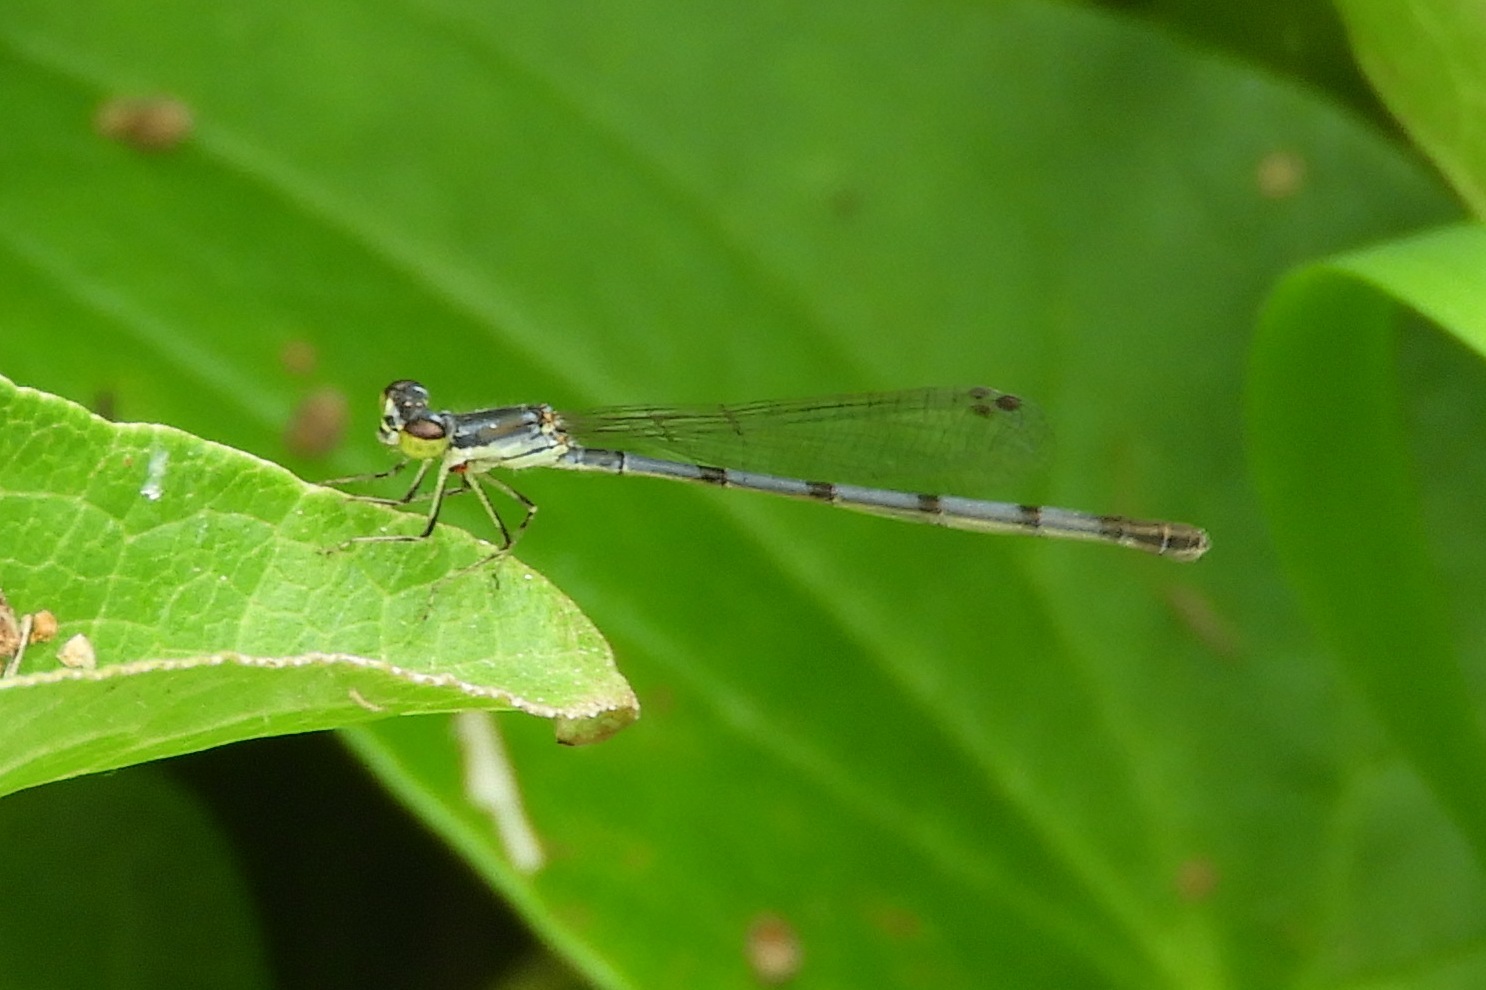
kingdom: Animalia
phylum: Arthropoda
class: Insecta
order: Odonata
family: Coenagrionidae
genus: Ischnura
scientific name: Ischnura posita
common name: Fragile forktail
